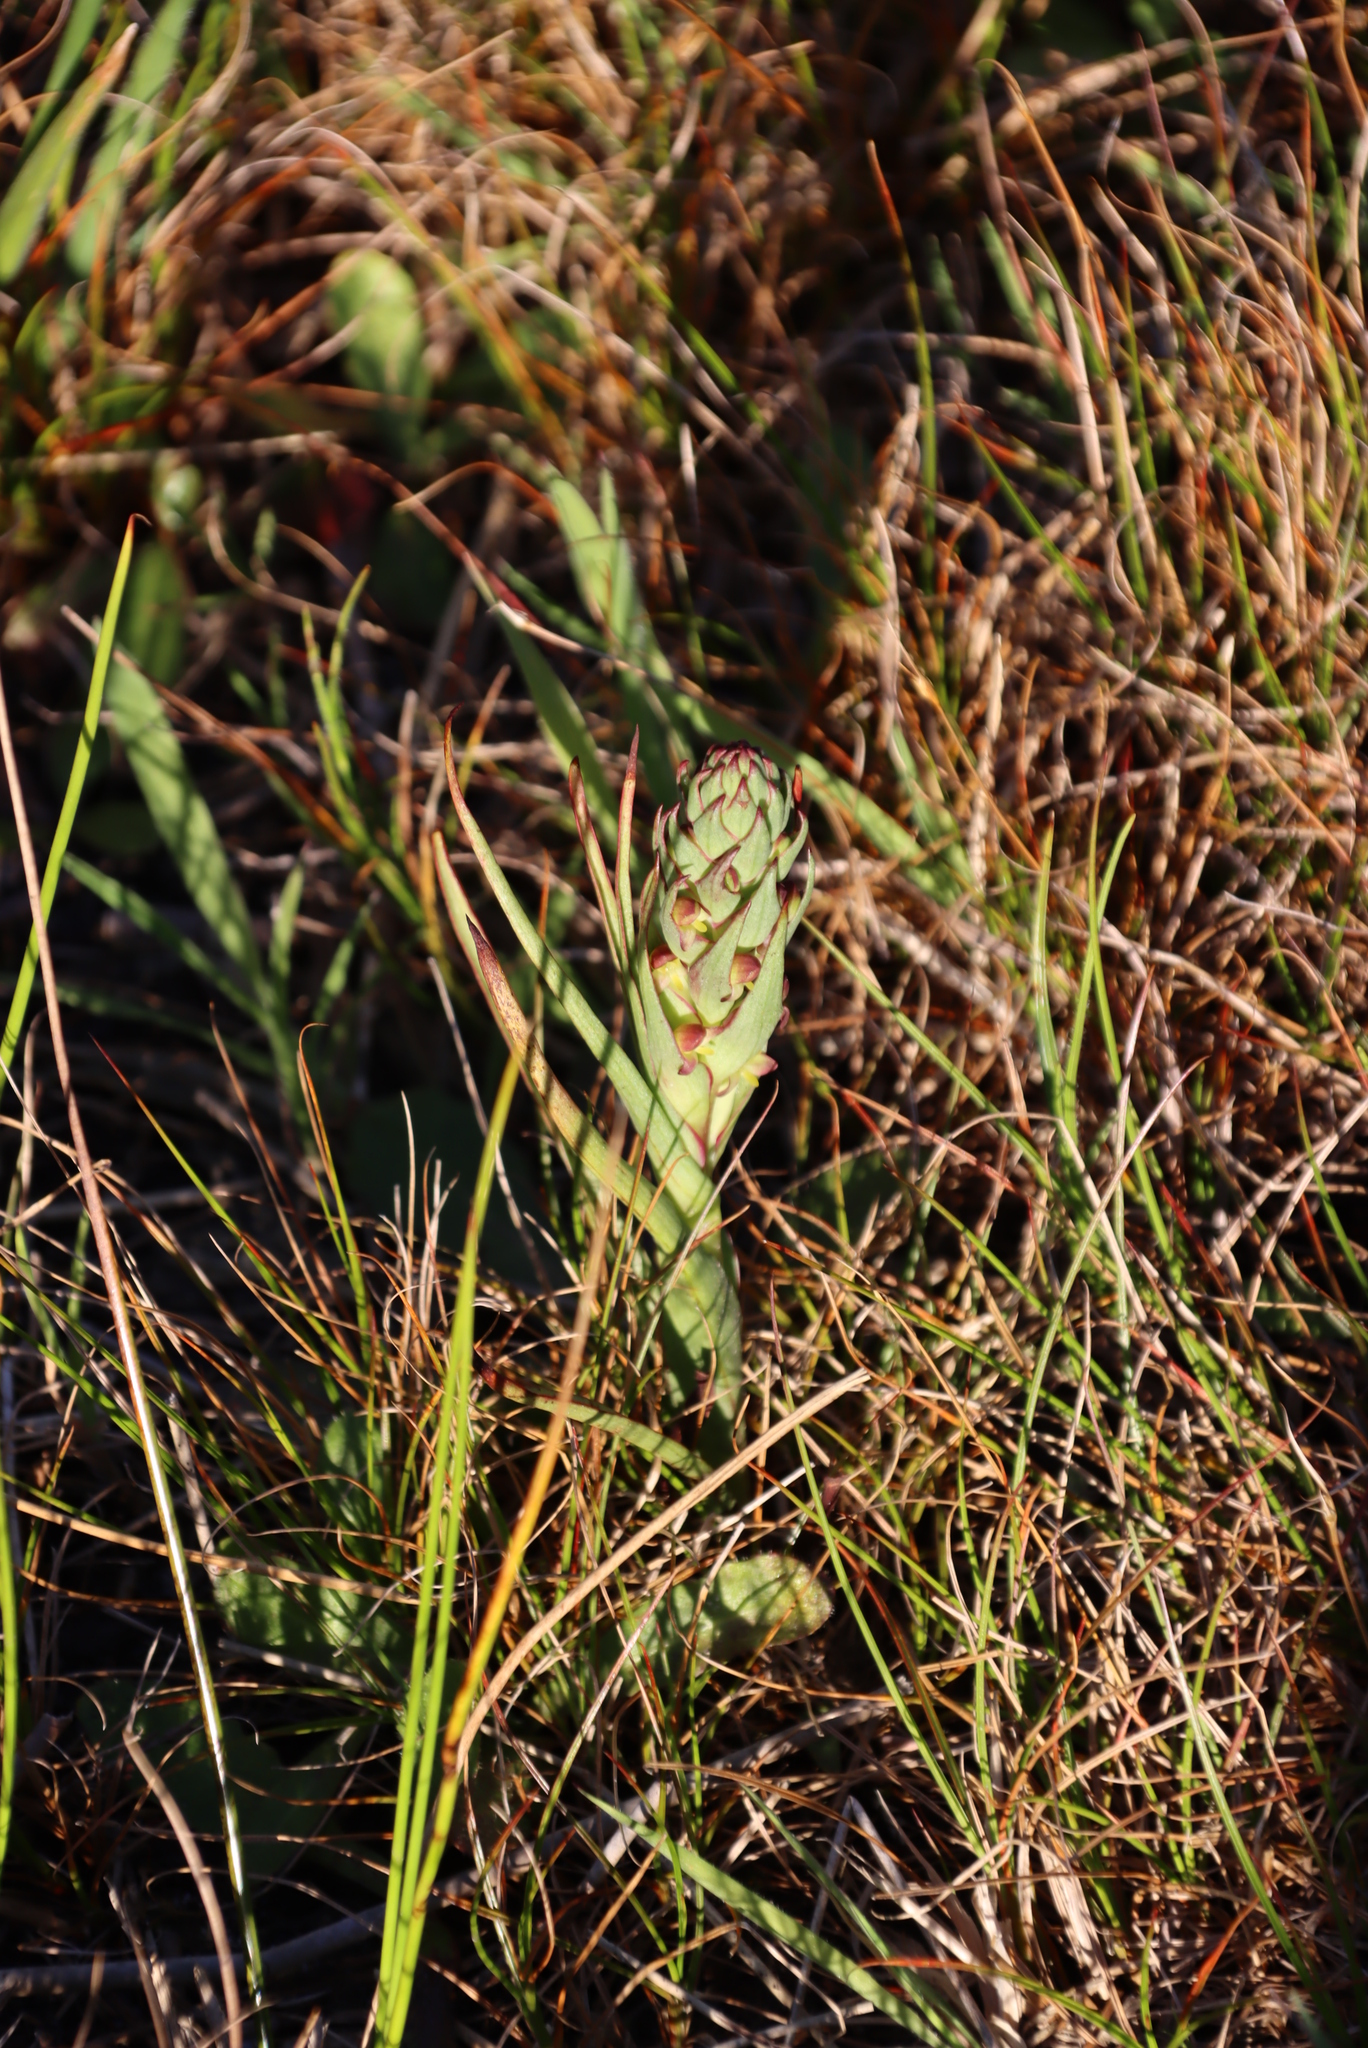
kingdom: Plantae
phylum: Tracheophyta
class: Liliopsida
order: Asparagales
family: Orchidaceae
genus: Disa
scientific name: Disa bracteata
